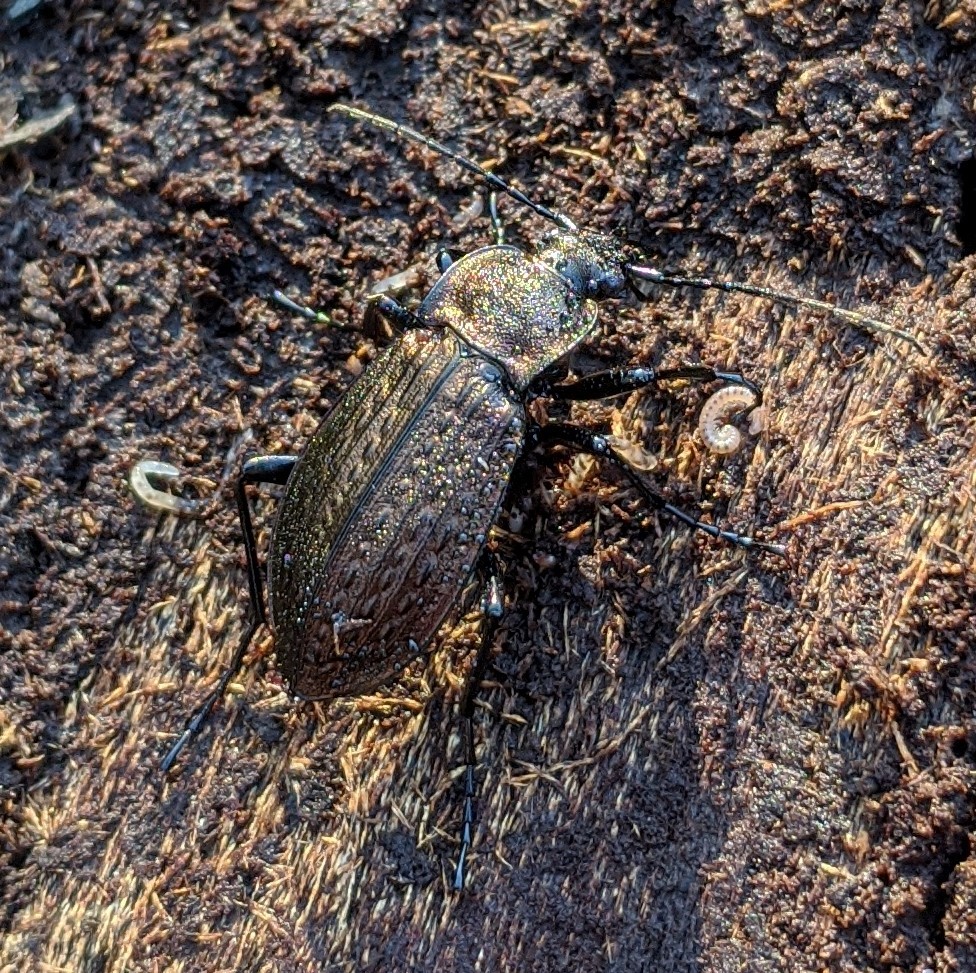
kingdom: Animalia
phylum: Arthropoda
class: Insecta
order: Coleoptera
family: Carabidae
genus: Carabus
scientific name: Carabus granulatus
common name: Granulate ground beetle
